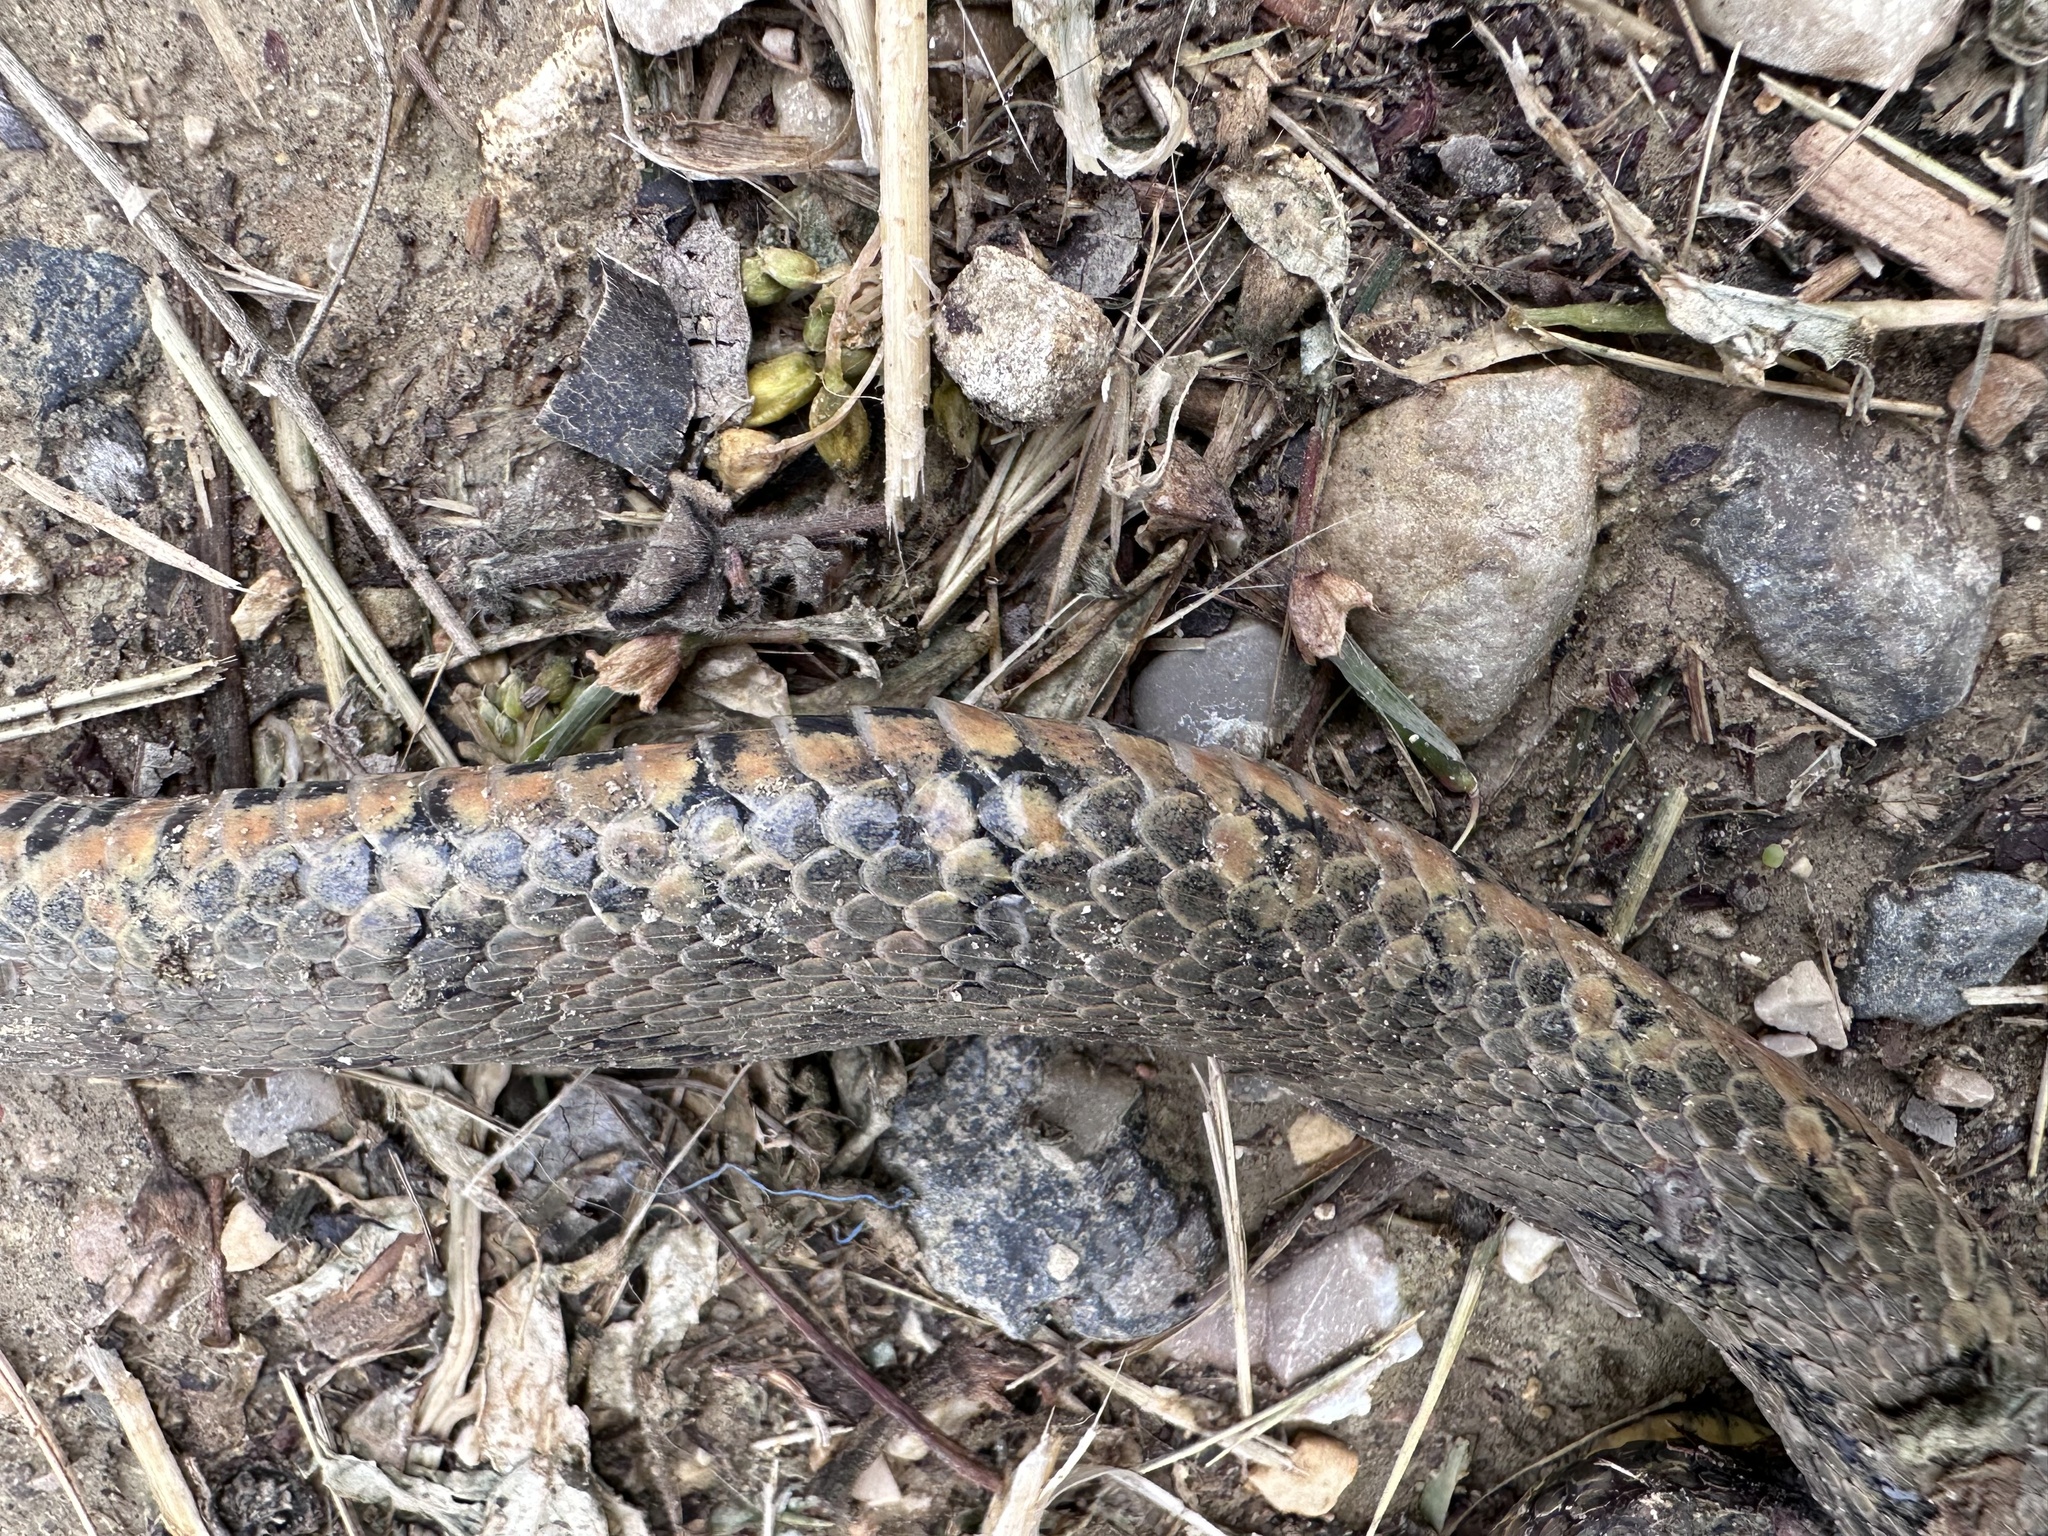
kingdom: Animalia
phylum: Chordata
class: Squamata
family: Colubridae
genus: Natrix
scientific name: Natrix maura
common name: Viperine water snake
